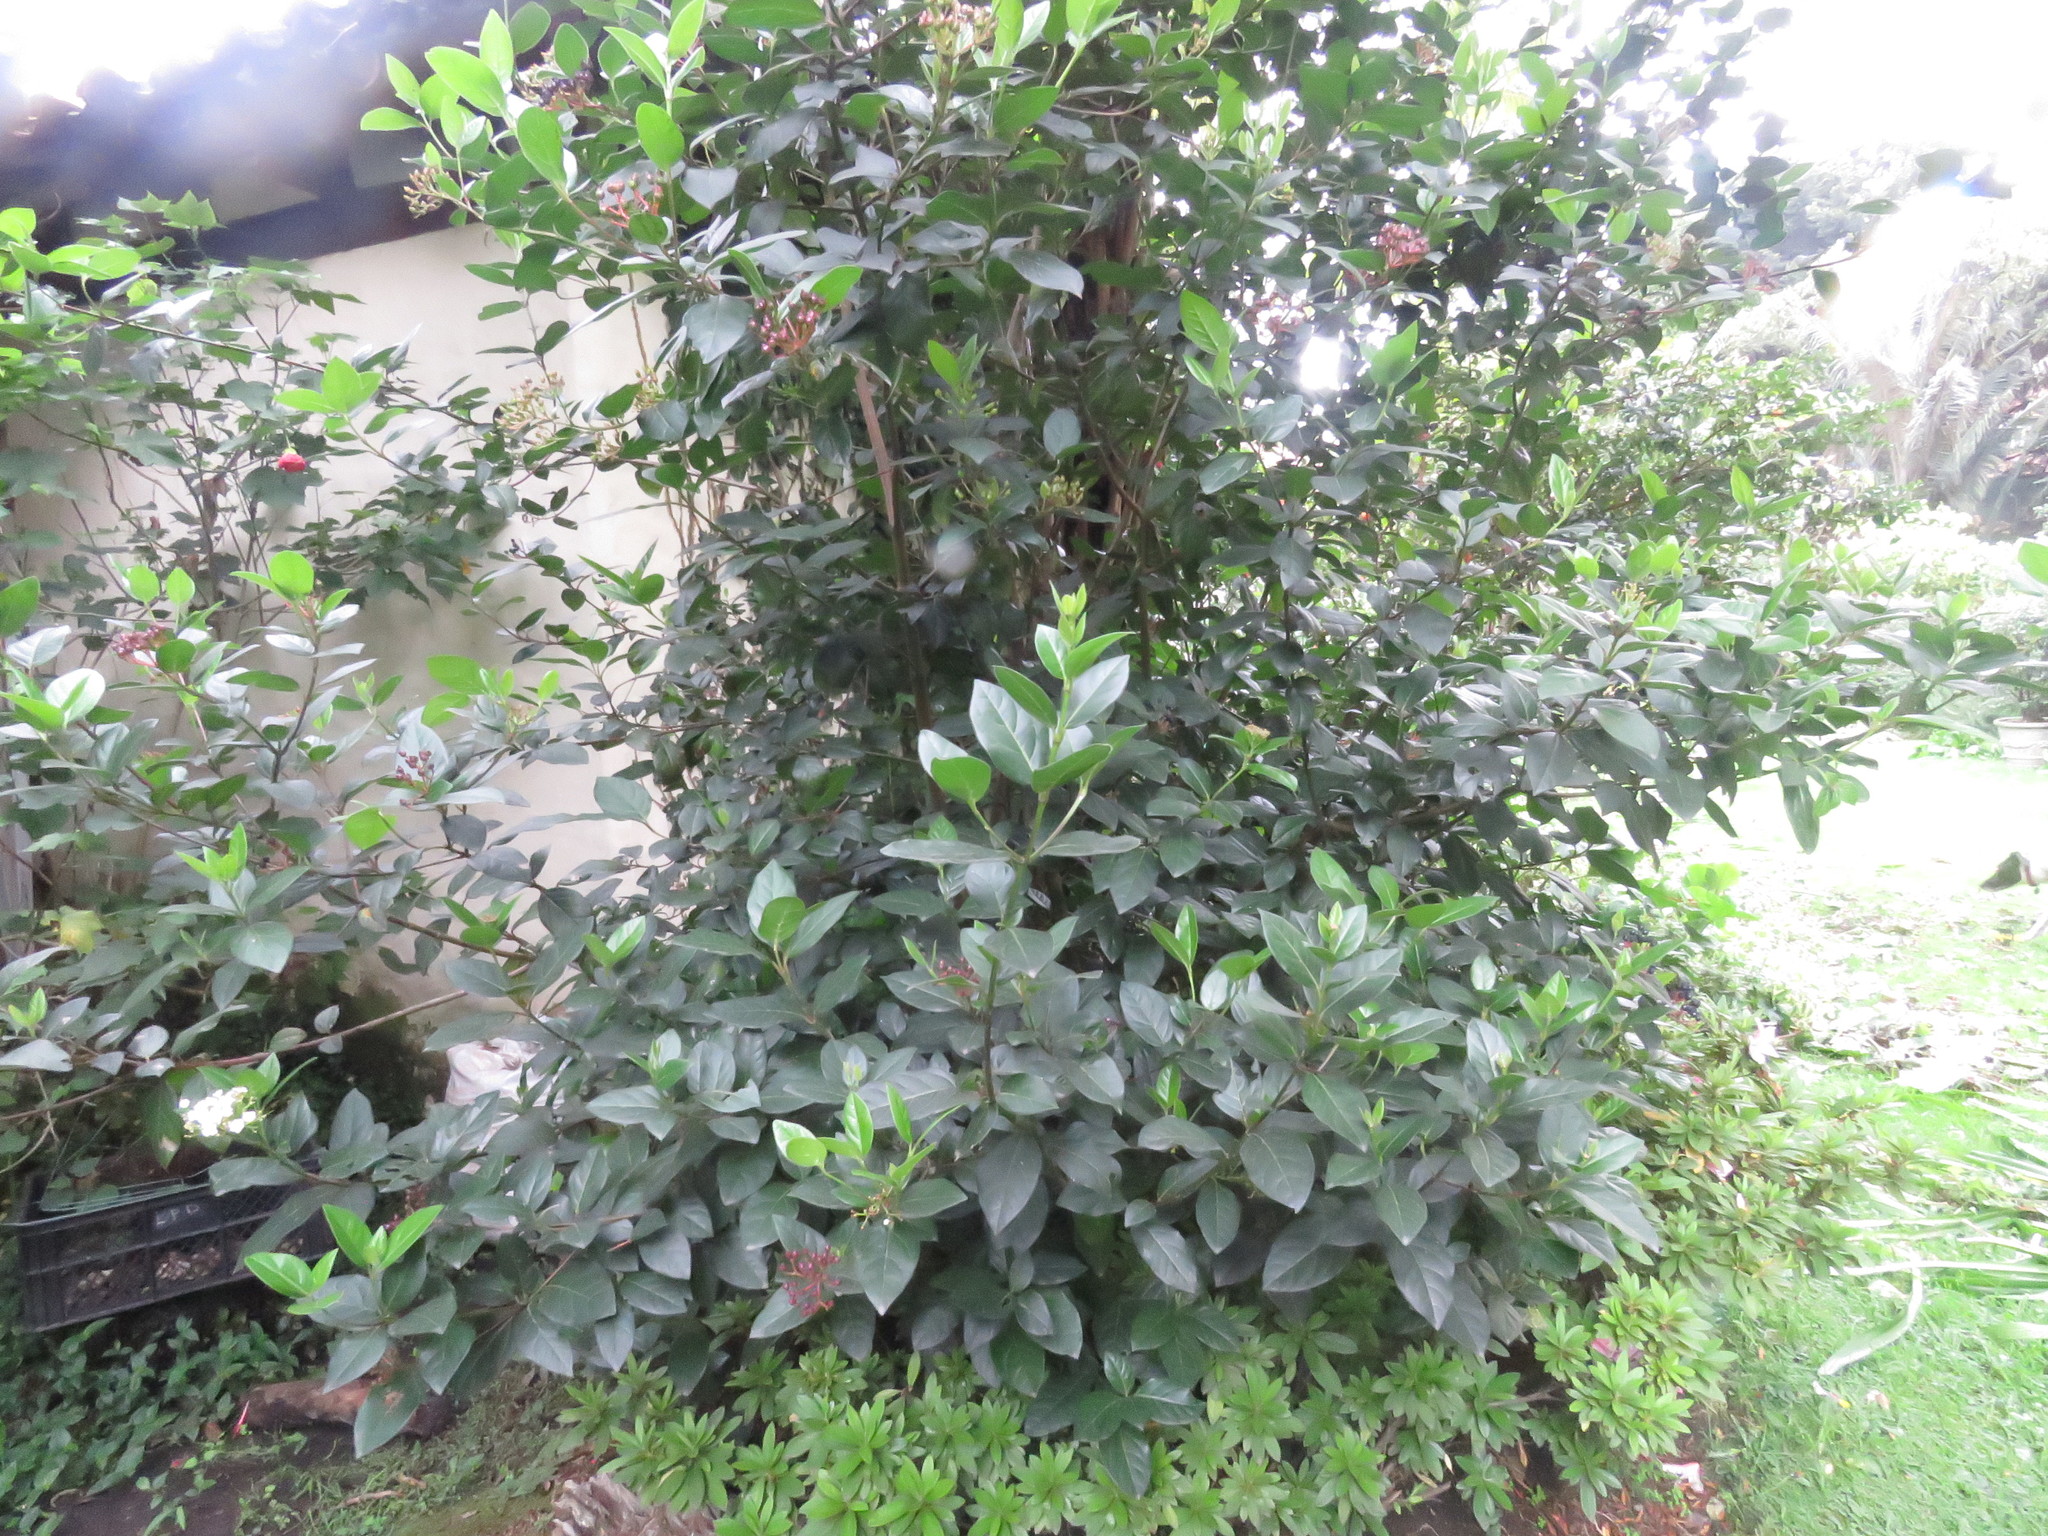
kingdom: Plantae
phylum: Tracheophyta
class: Magnoliopsida
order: Dipsacales
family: Viburnaceae
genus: Viburnum
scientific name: Viburnum triphyllum
